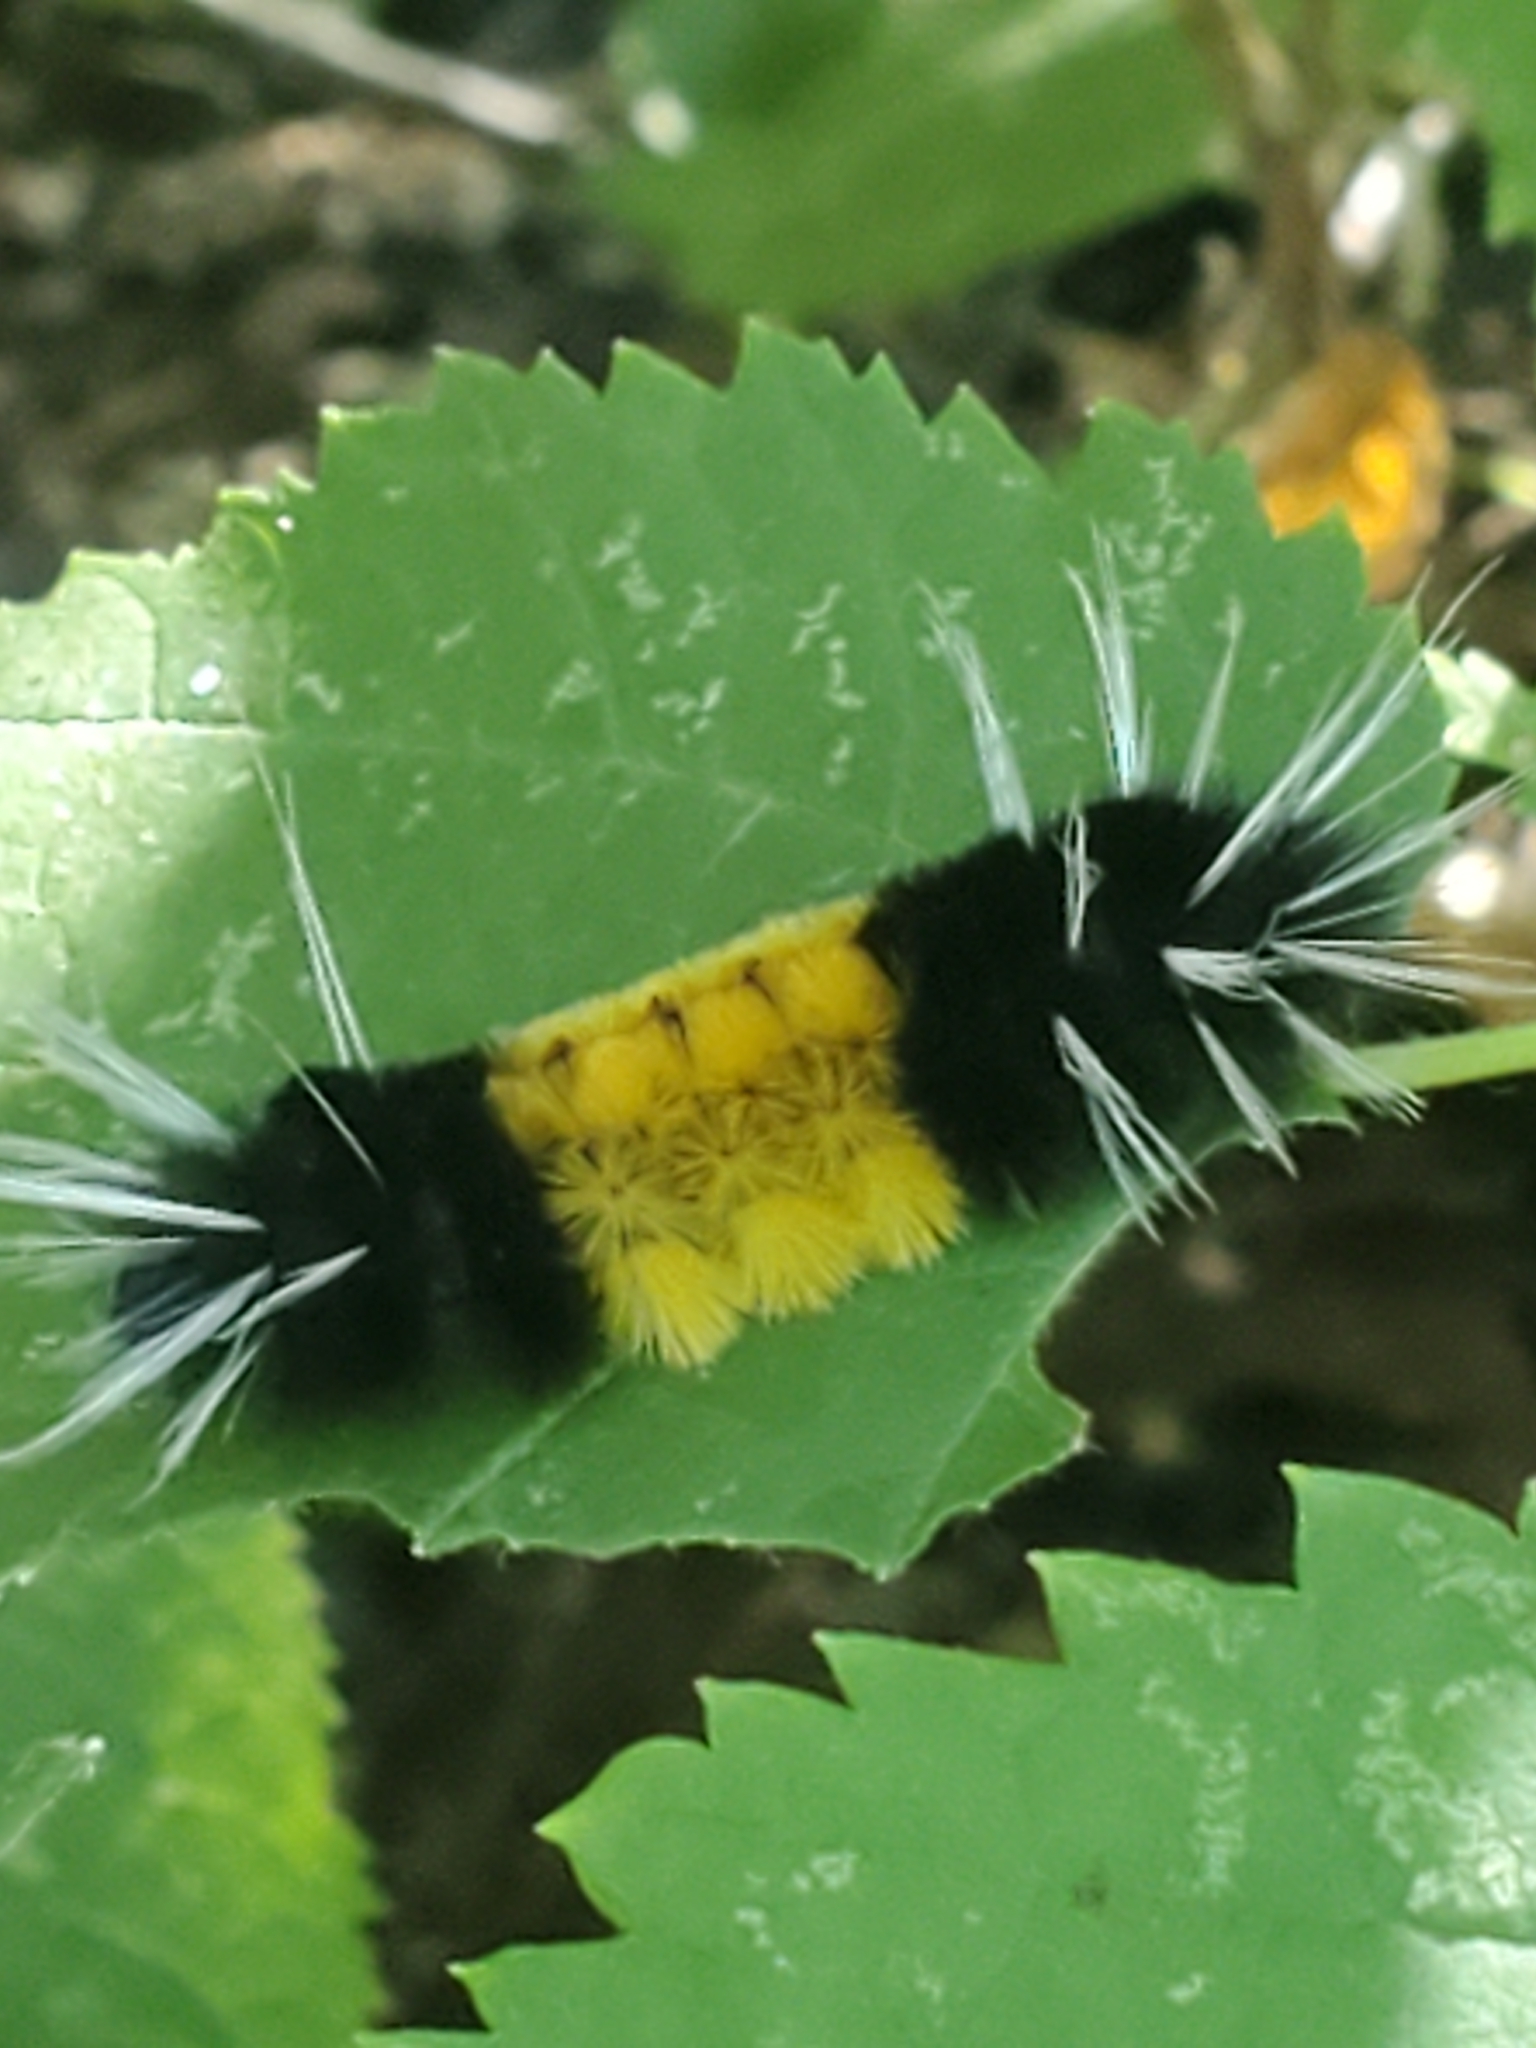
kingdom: Animalia
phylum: Arthropoda
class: Insecta
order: Lepidoptera
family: Erebidae
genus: Lophocampa
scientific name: Lophocampa maculata
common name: Spotted tussock moth
